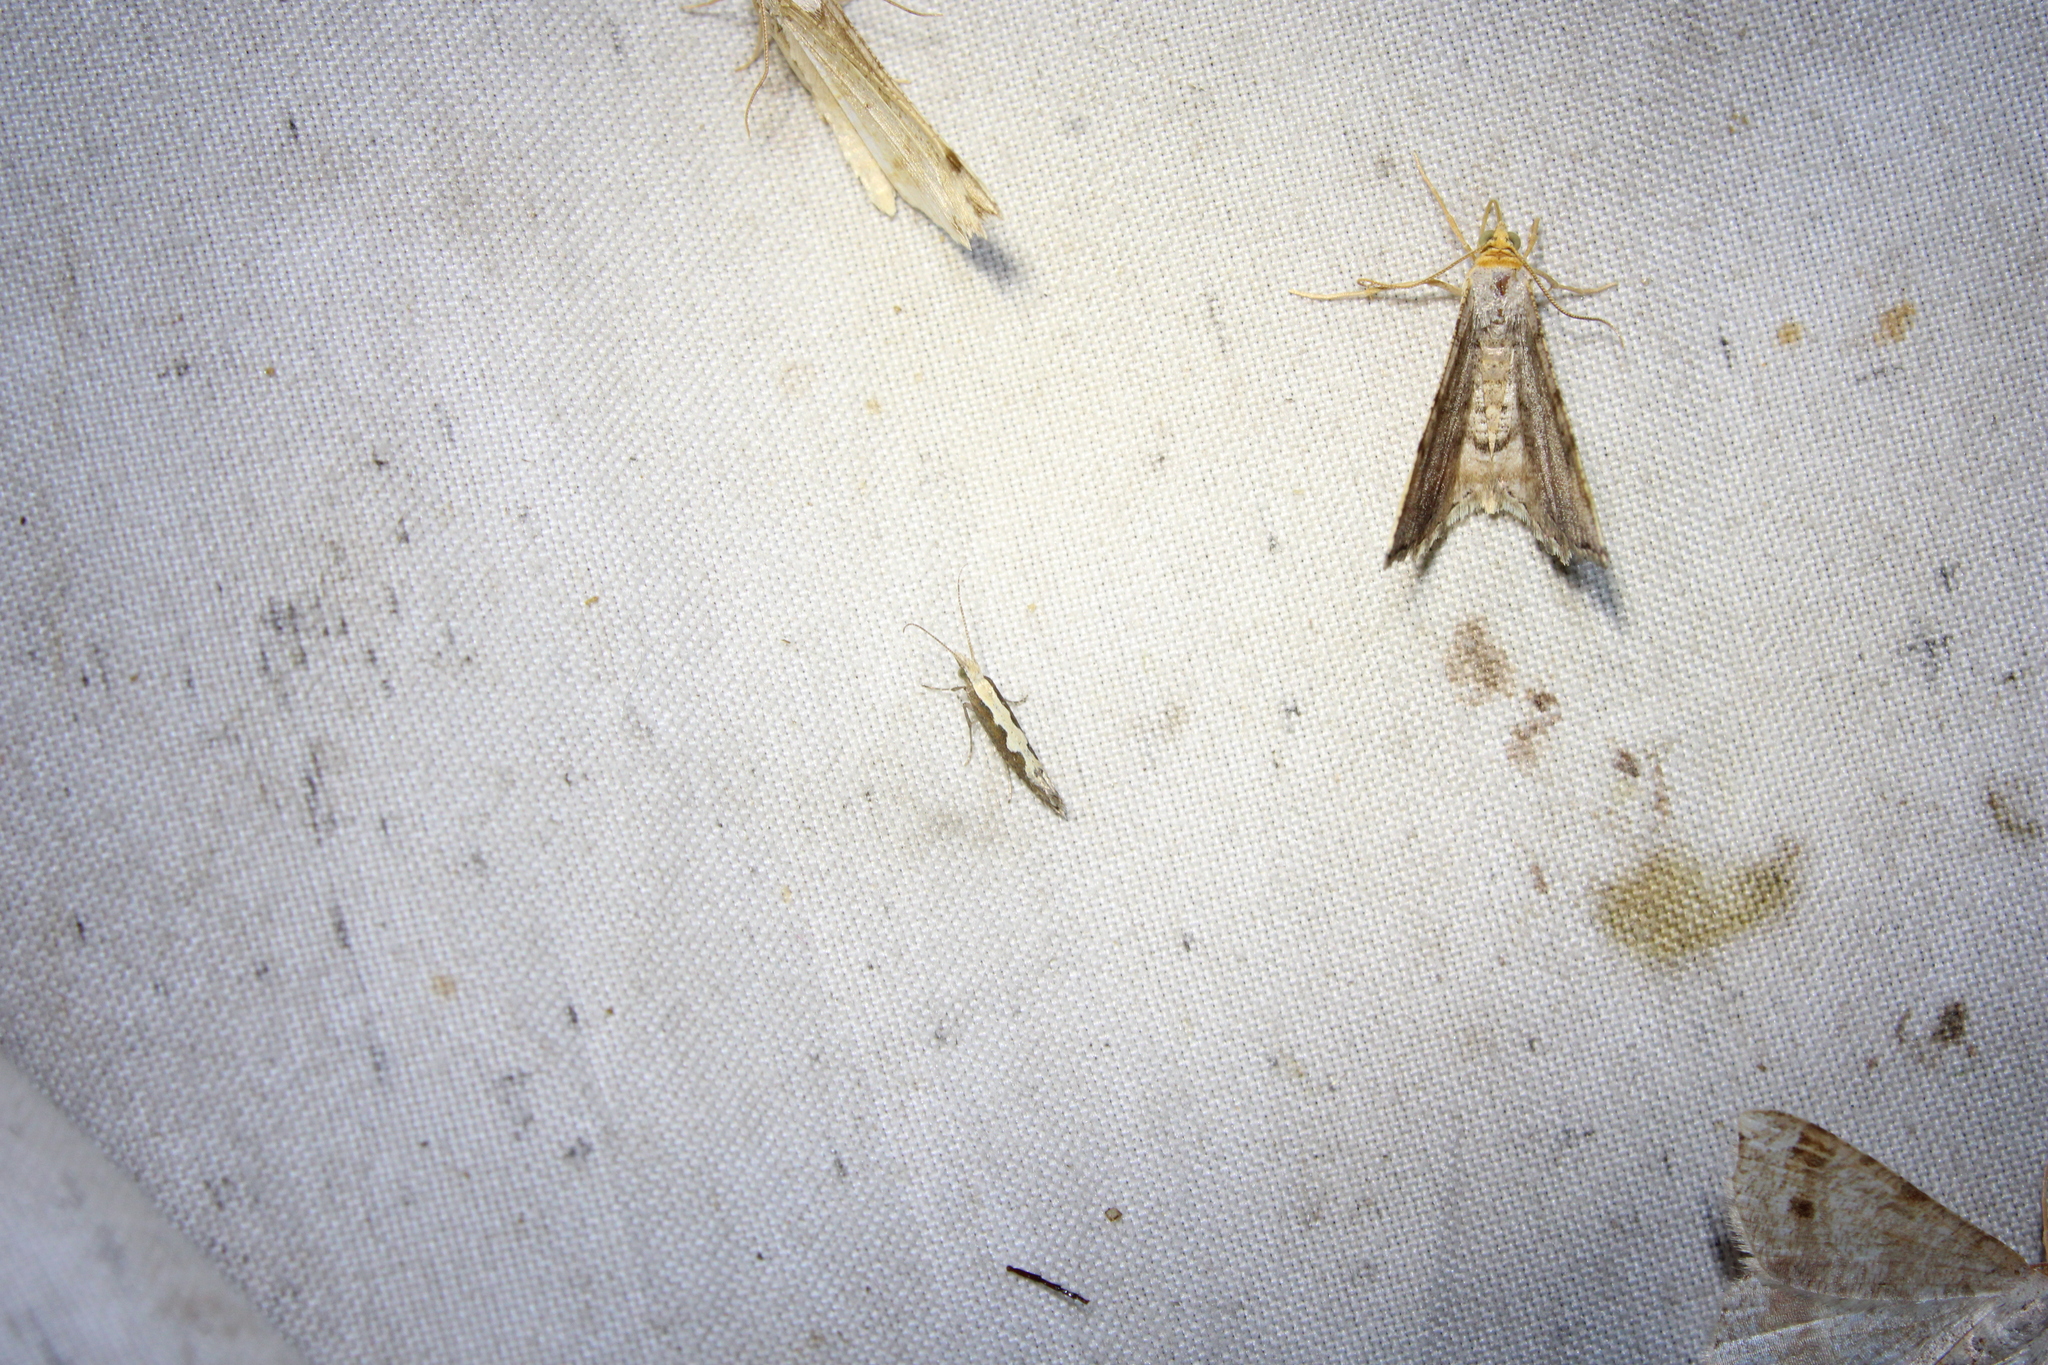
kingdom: Animalia
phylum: Arthropoda
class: Insecta
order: Lepidoptera
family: Plutellidae
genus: Plutella
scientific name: Plutella xylostella
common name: Diamond-back moth
